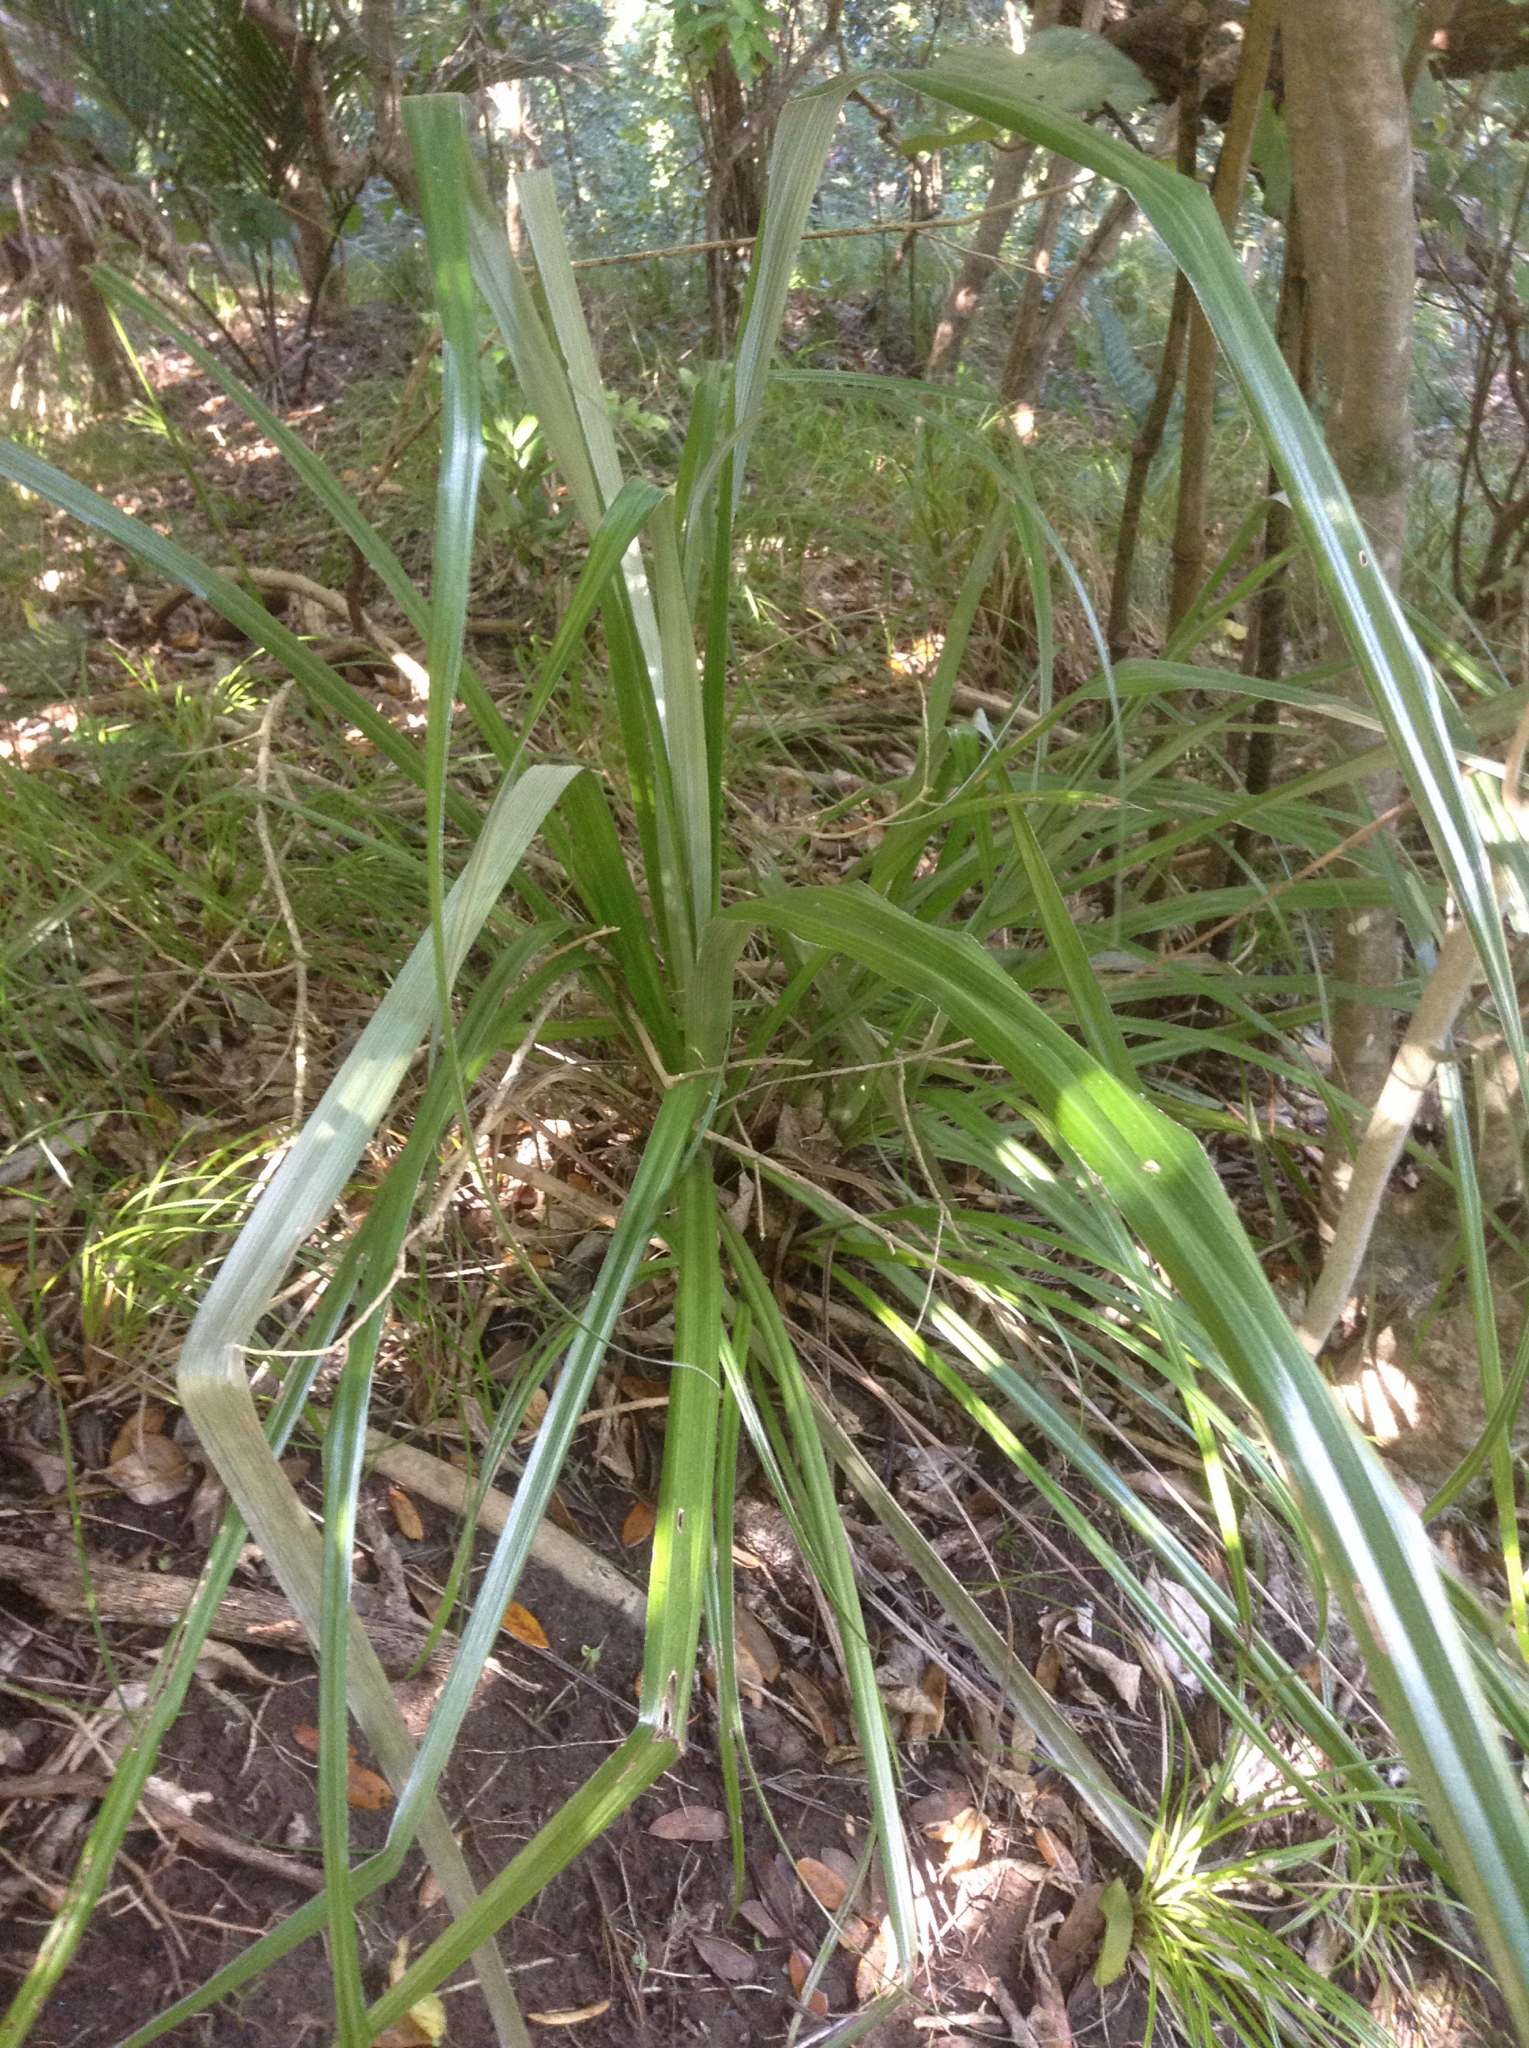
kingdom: Plantae
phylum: Tracheophyta
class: Liliopsida
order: Asparagales
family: Asteliaceae
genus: Astelia
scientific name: Astelia banksii
